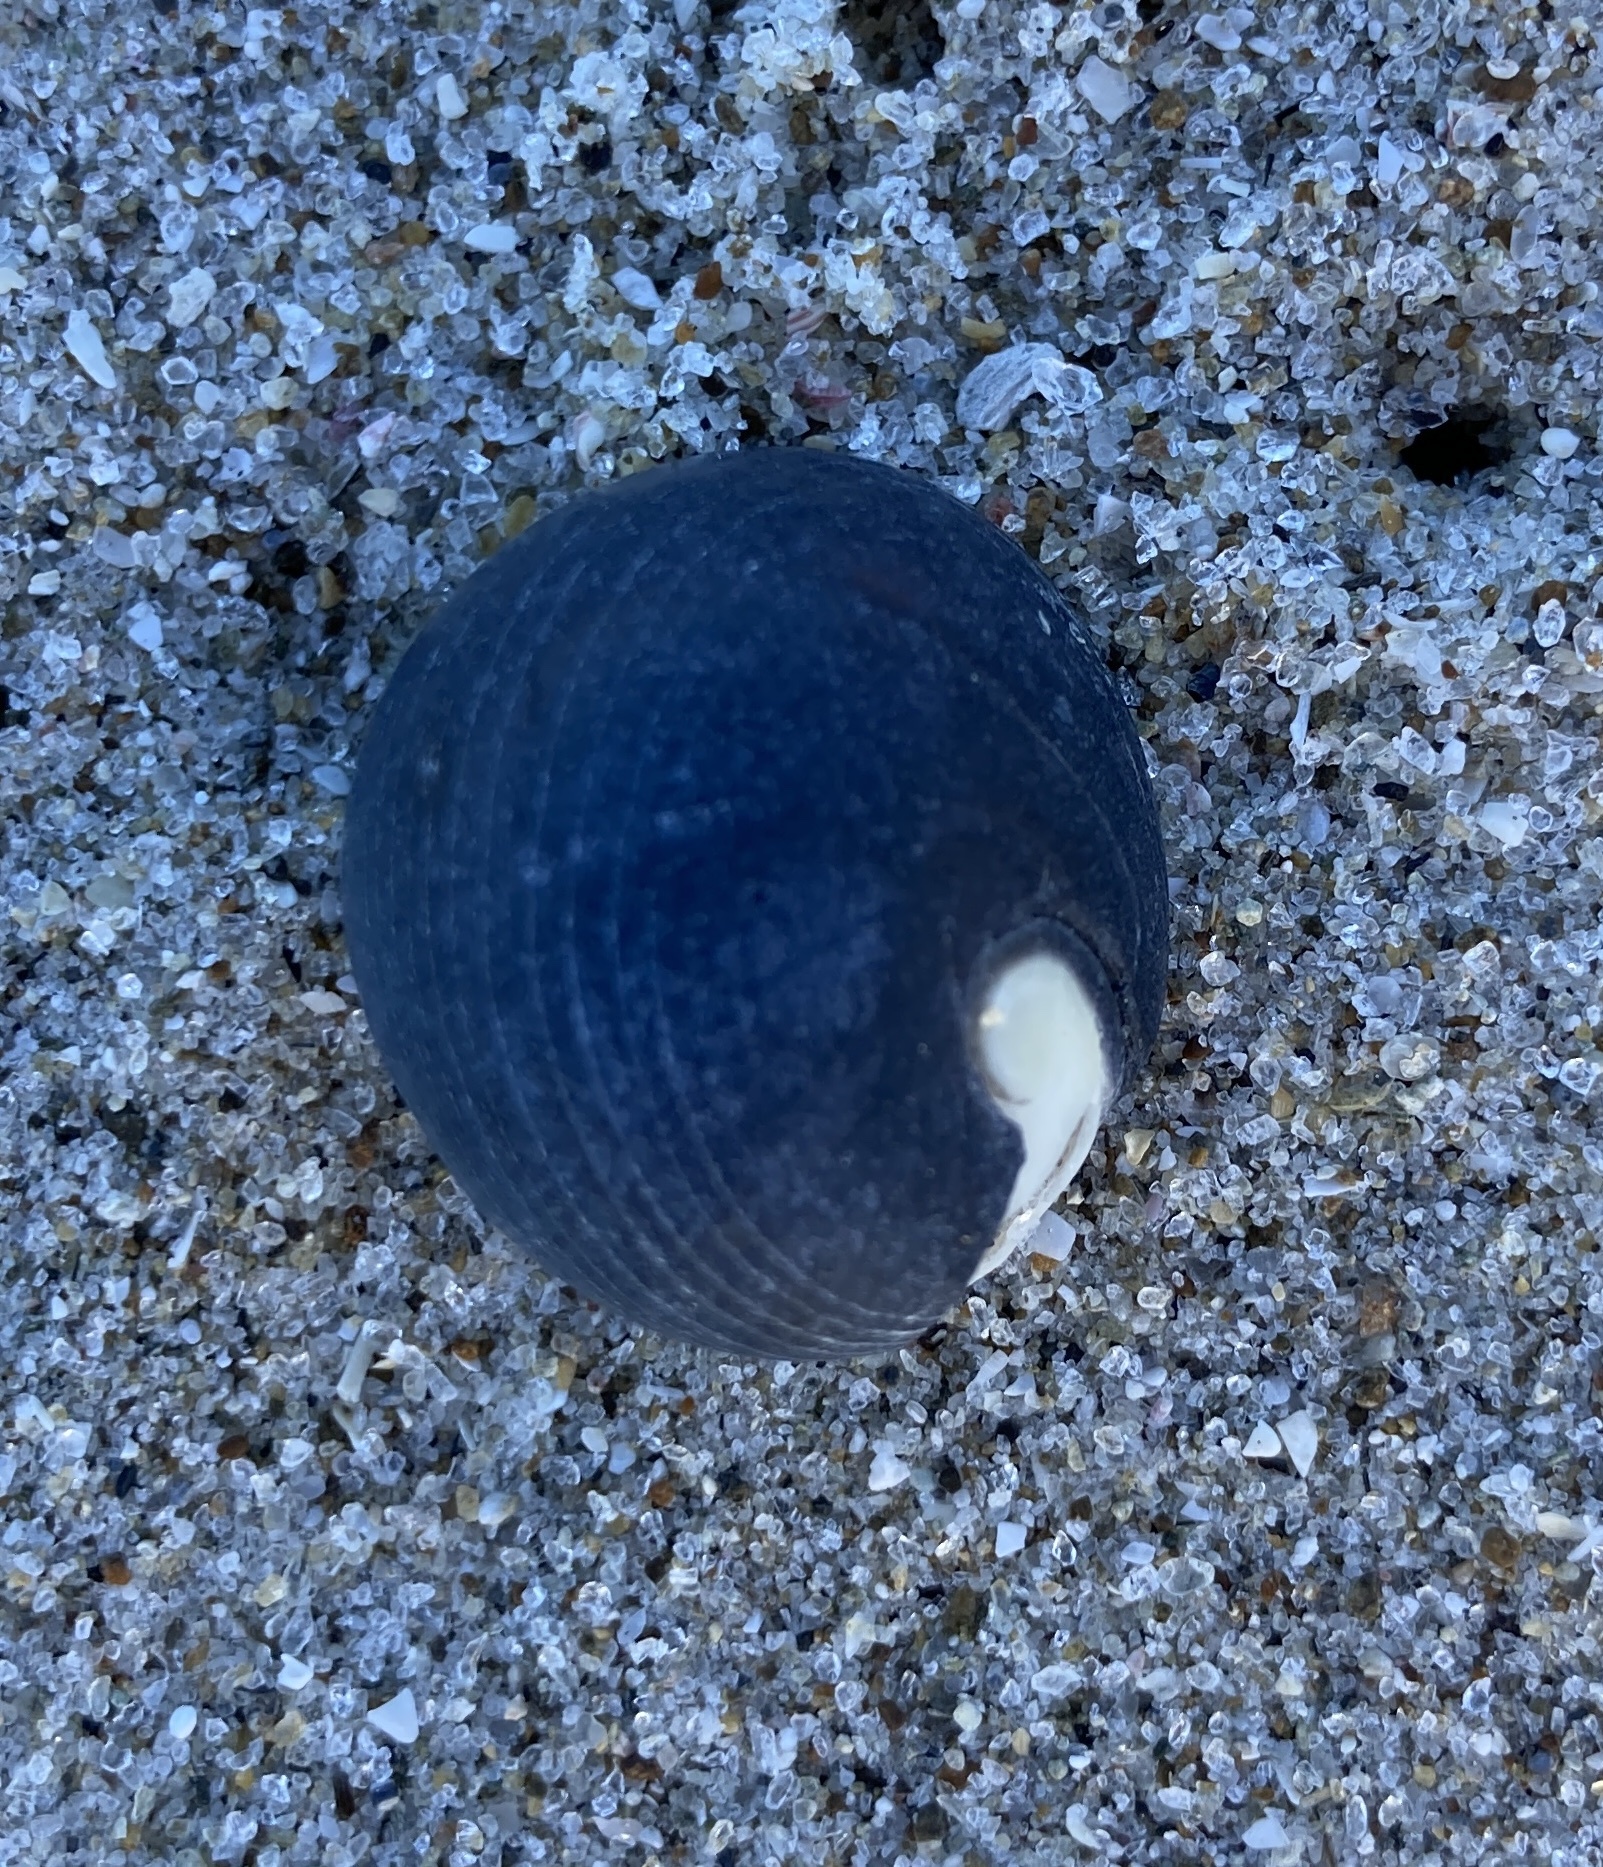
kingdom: Animalia
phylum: Mollusca
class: Gastropoda
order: Cycloneritida
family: Neritidae
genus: Nerita
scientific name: Nerita melanotragus
